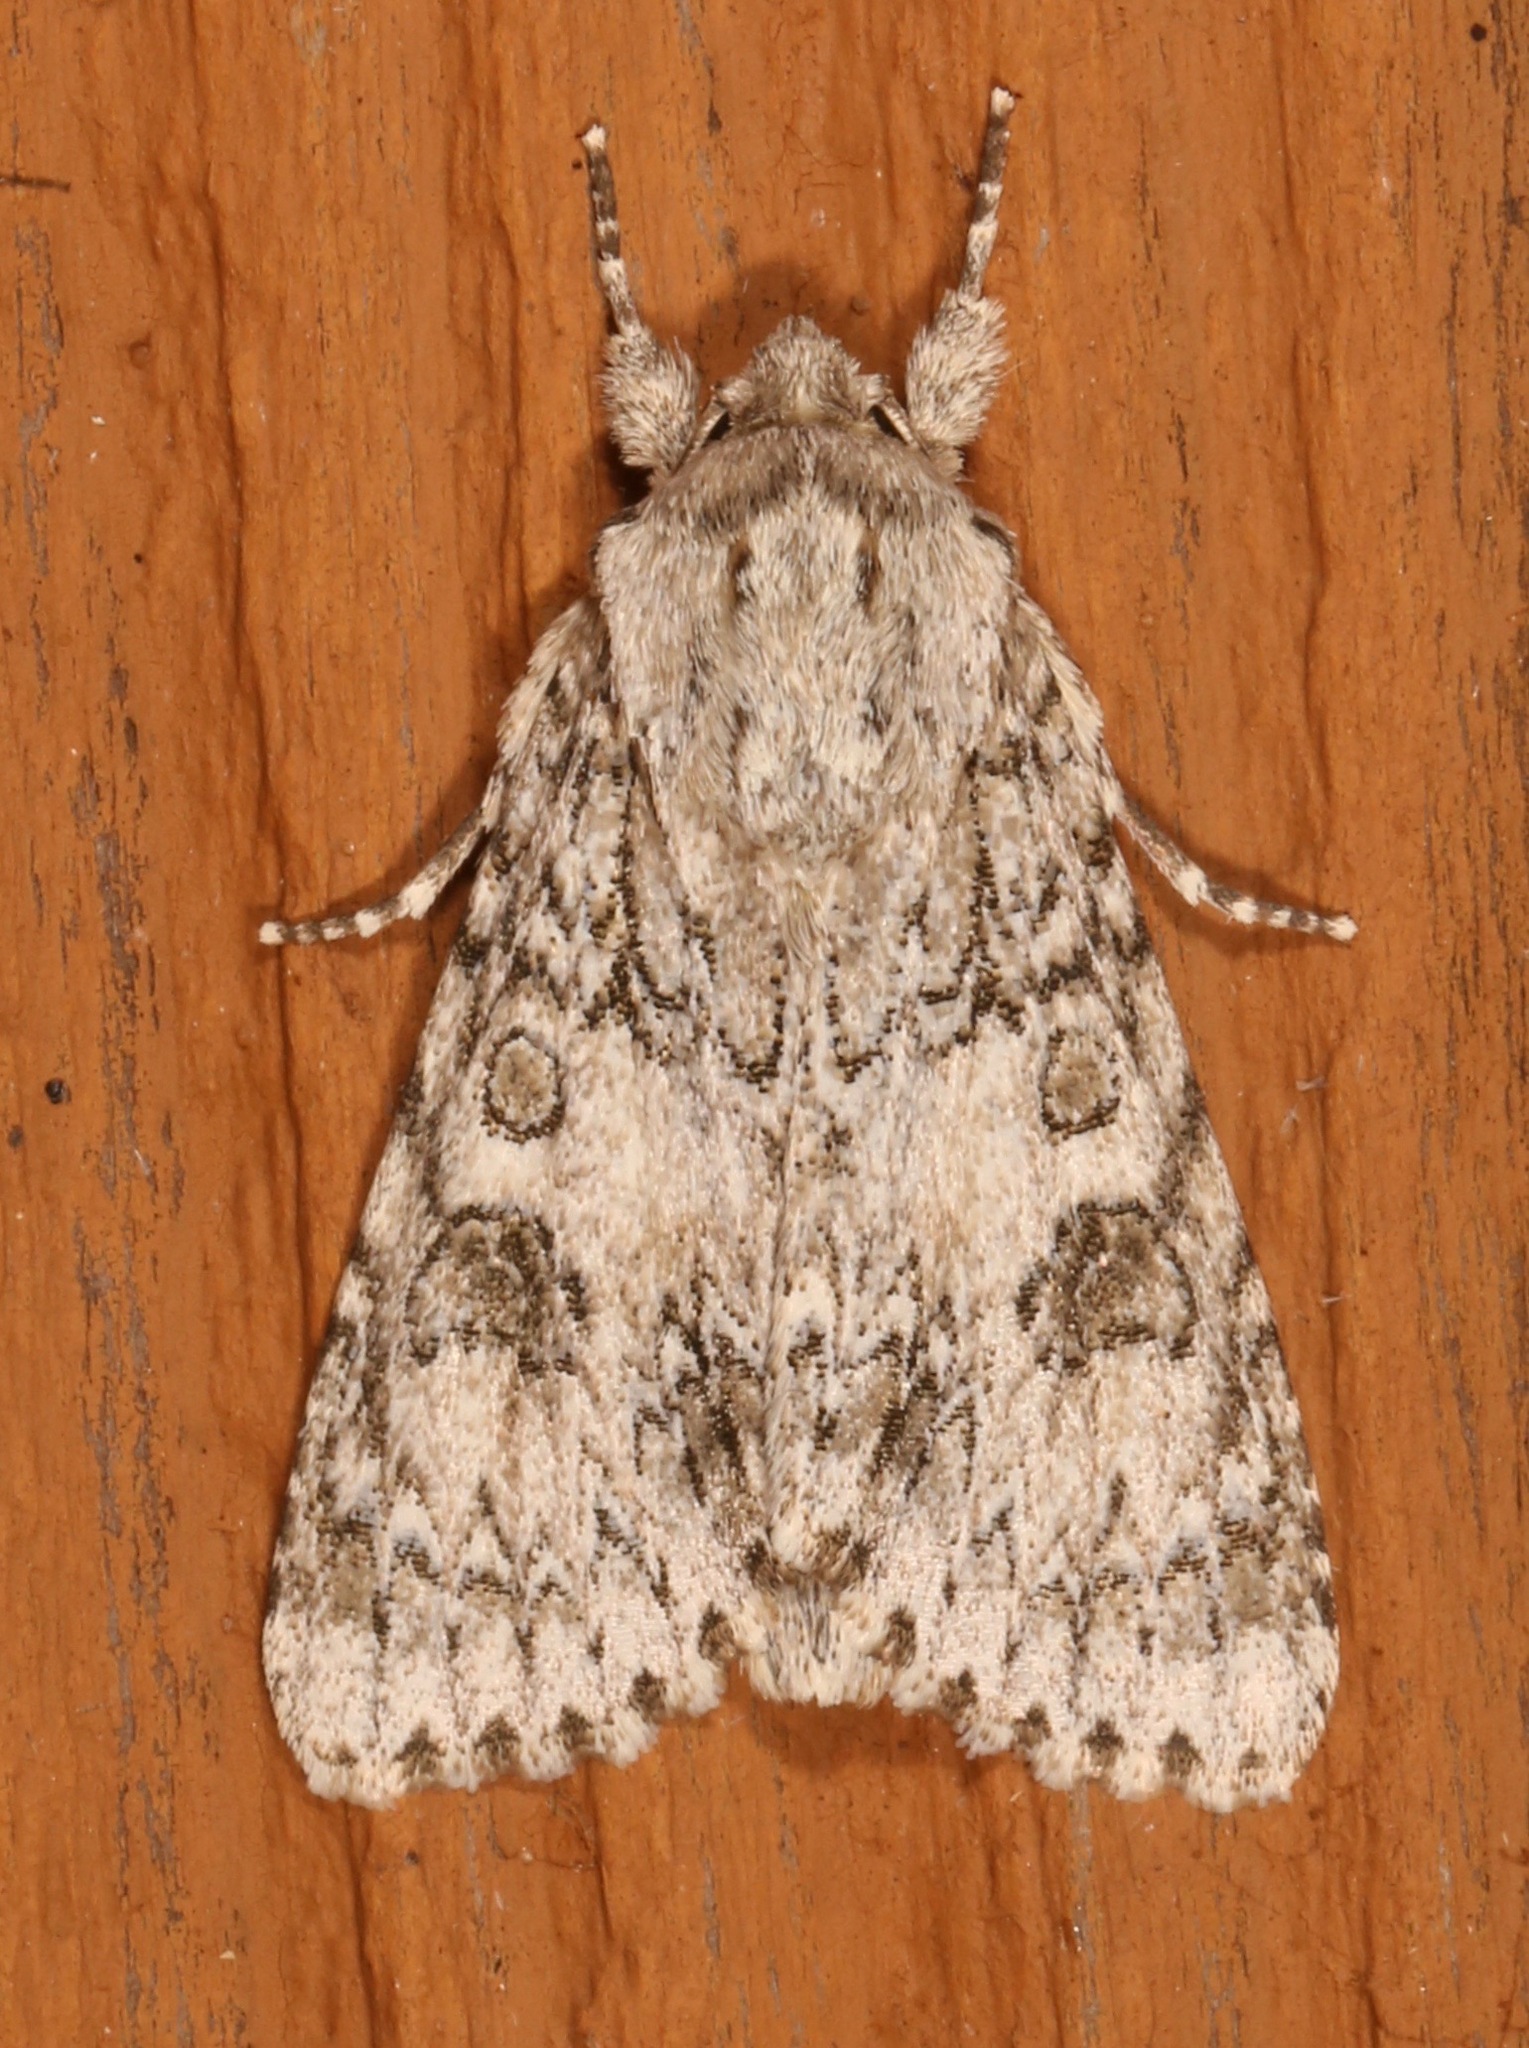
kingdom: Animalia
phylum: Arthropoda
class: Insecta
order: Lepidoptera
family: Noctuidae
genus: Acronicta
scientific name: Acronicta rubricoma
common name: Hackberry dagger
